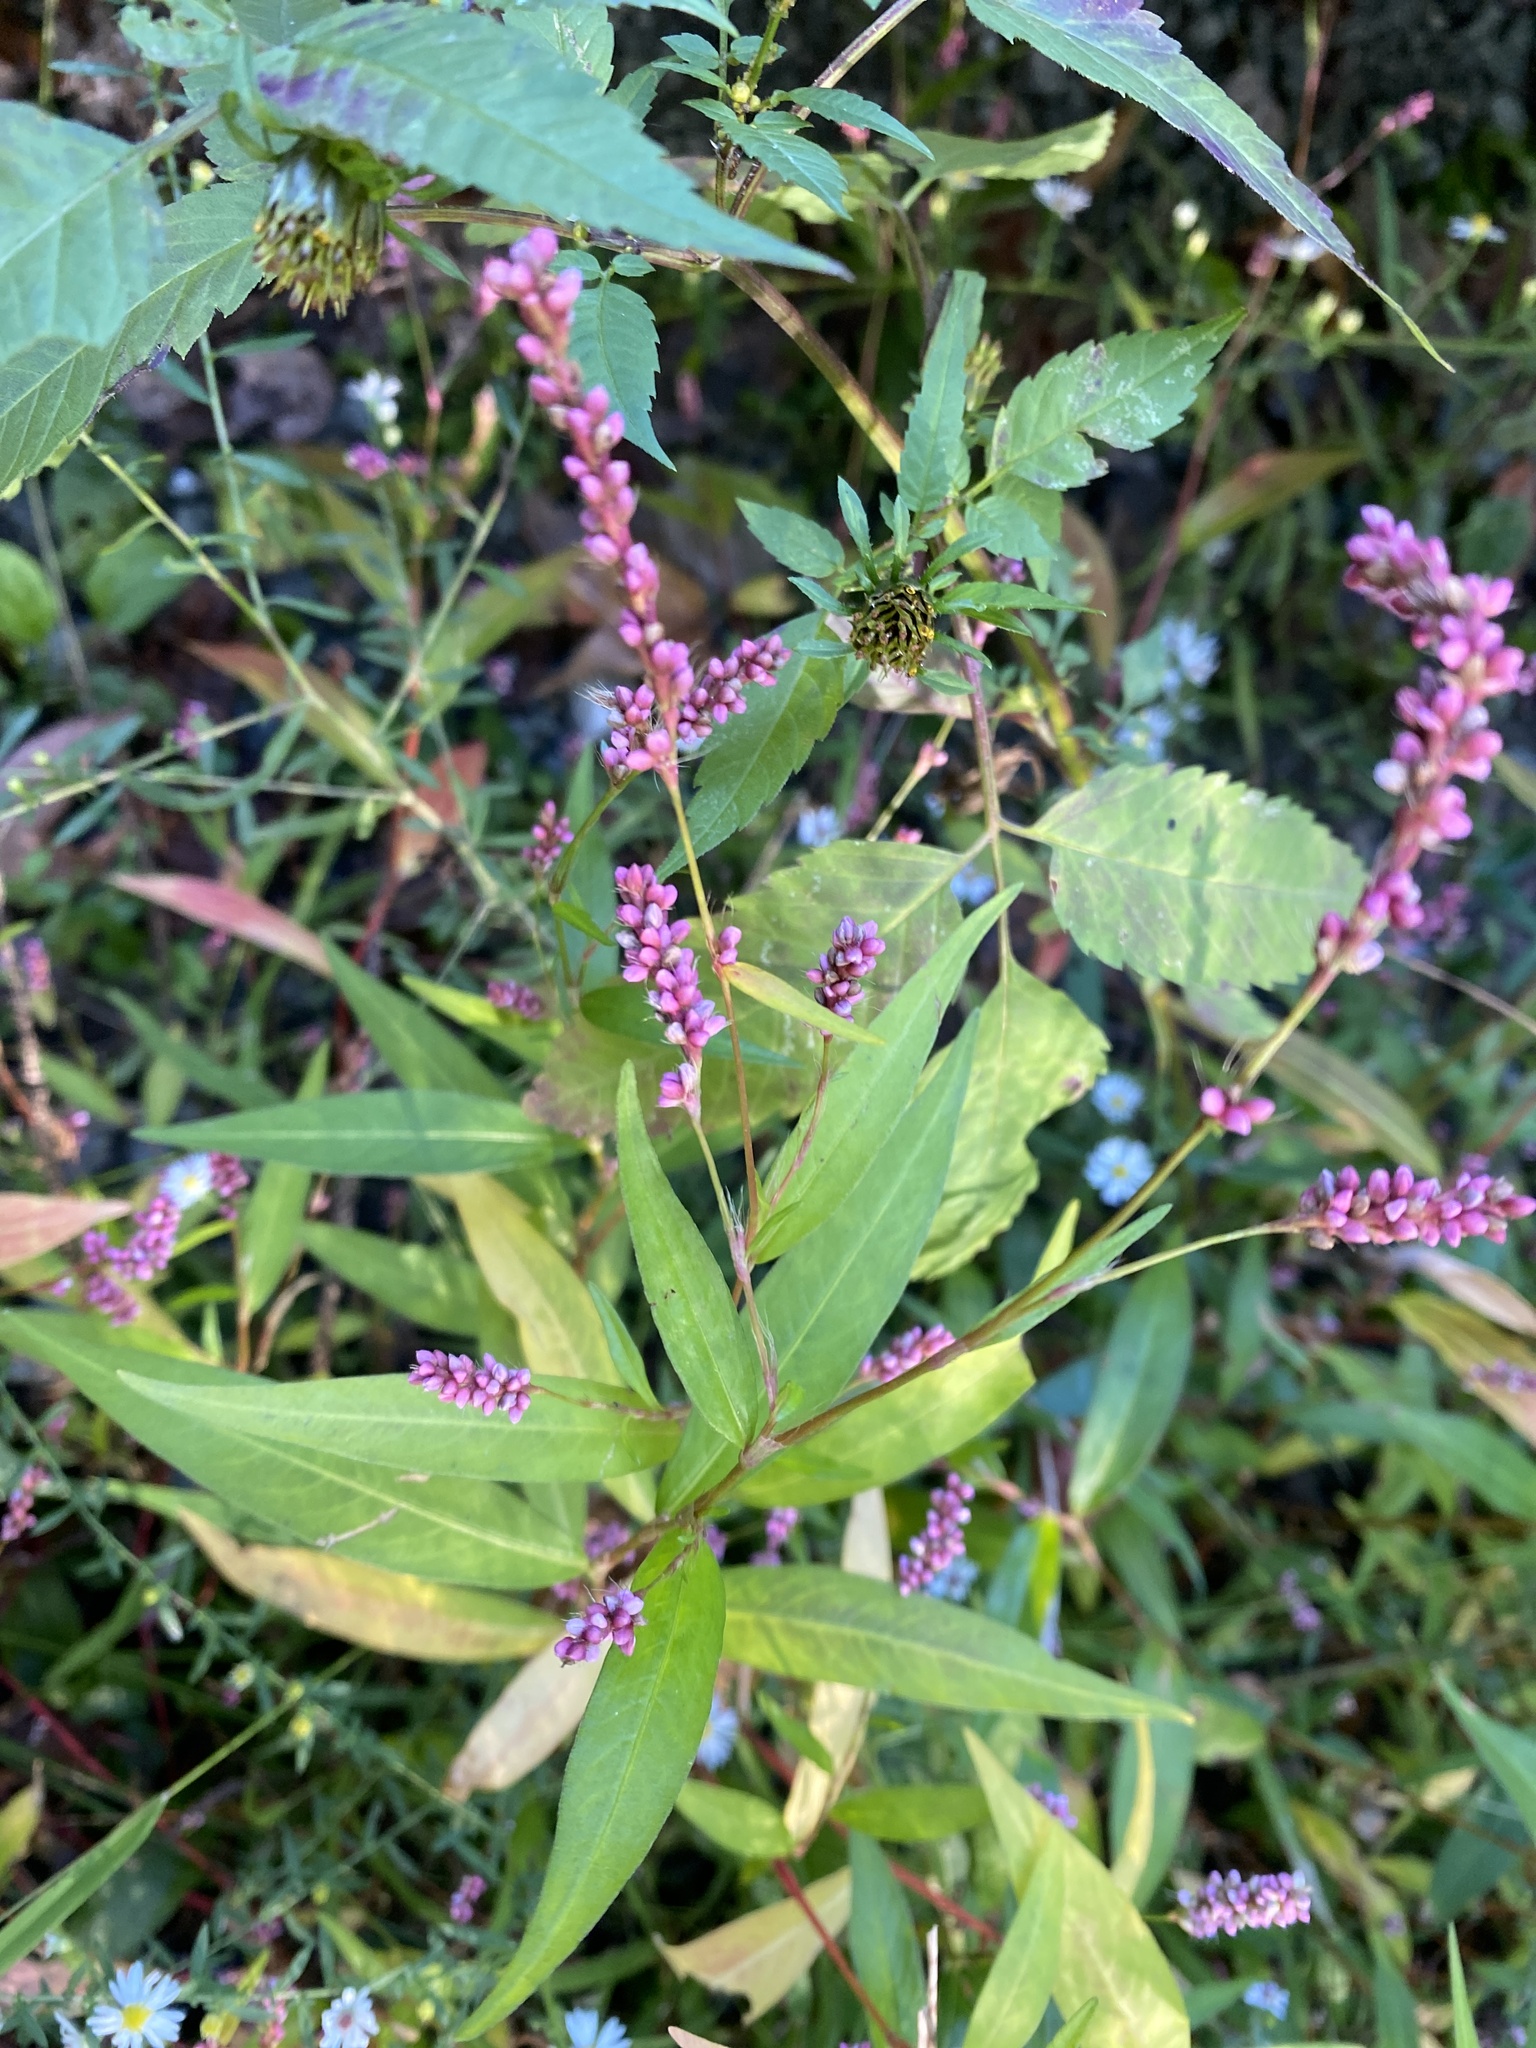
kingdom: Plantae
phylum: Tracheophyta
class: Magnoliopsida
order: Caryophyllales
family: Polygonaceae
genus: Persicaria
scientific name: Persicaria longiseta
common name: Bristly lady's-thumb
